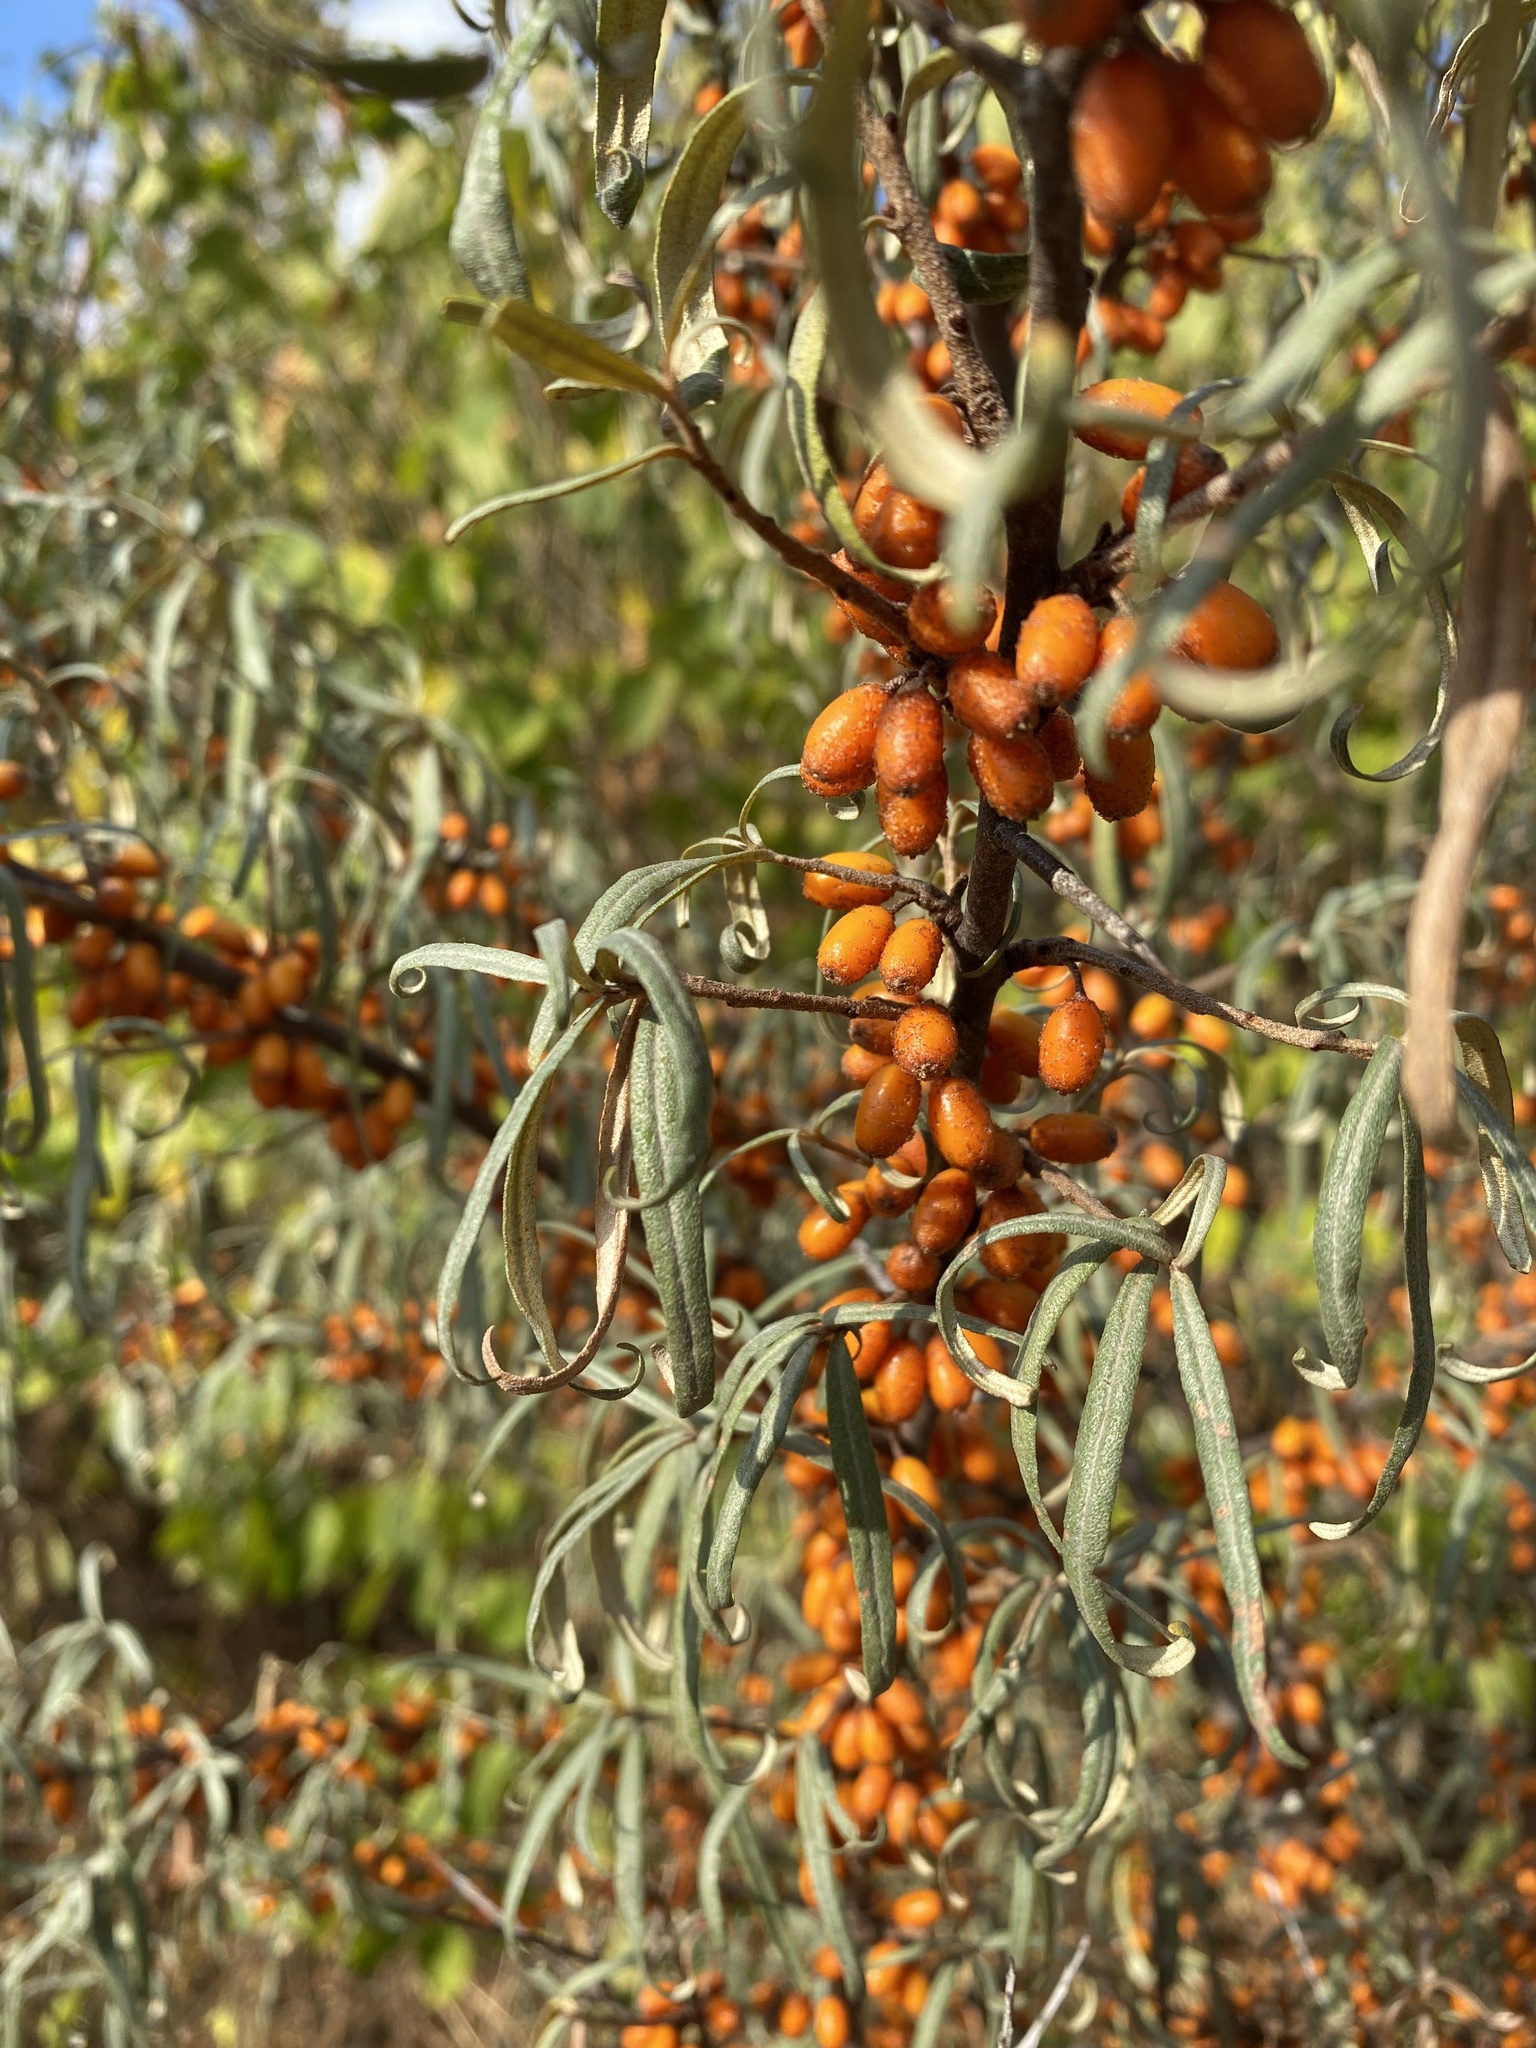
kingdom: Plantae
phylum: Tracheophyta
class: Magnoliopsida
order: Rosales
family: Elaeagnaceae
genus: Hippophae
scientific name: Hippophae rhamnoides
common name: Sea-buckthorn
